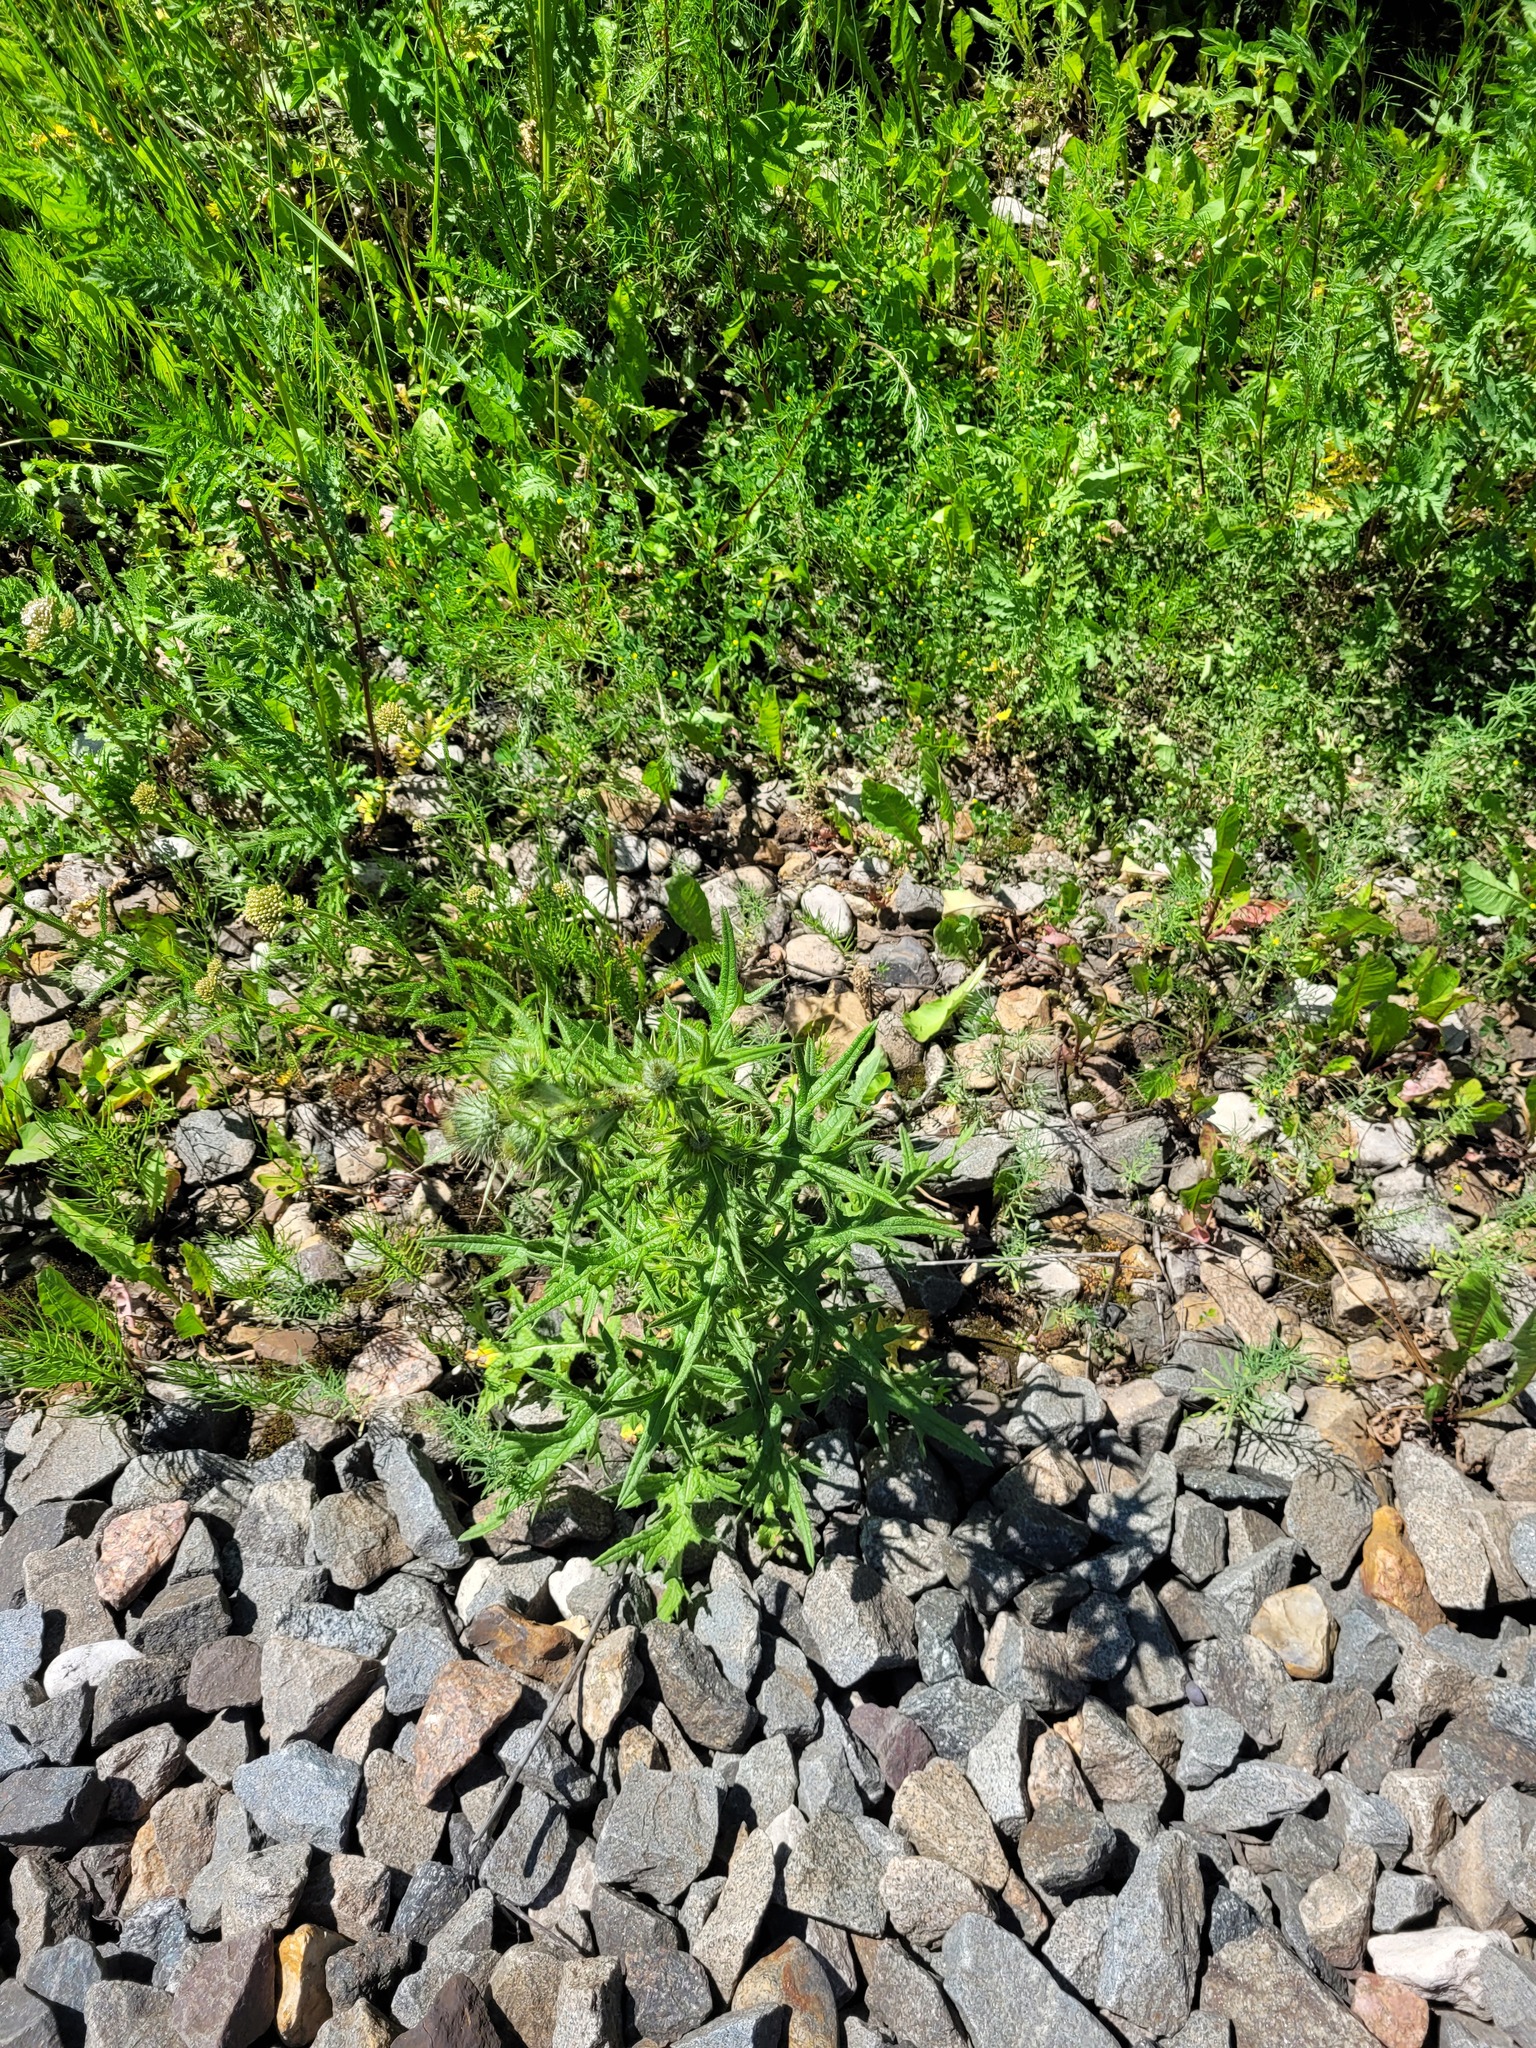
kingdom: Plantae
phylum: Tracheophyta
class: Magnoliopsida
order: Asterales
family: Asteraceae
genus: Cirsium
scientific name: Cirsium vulgare
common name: Bull thistle
